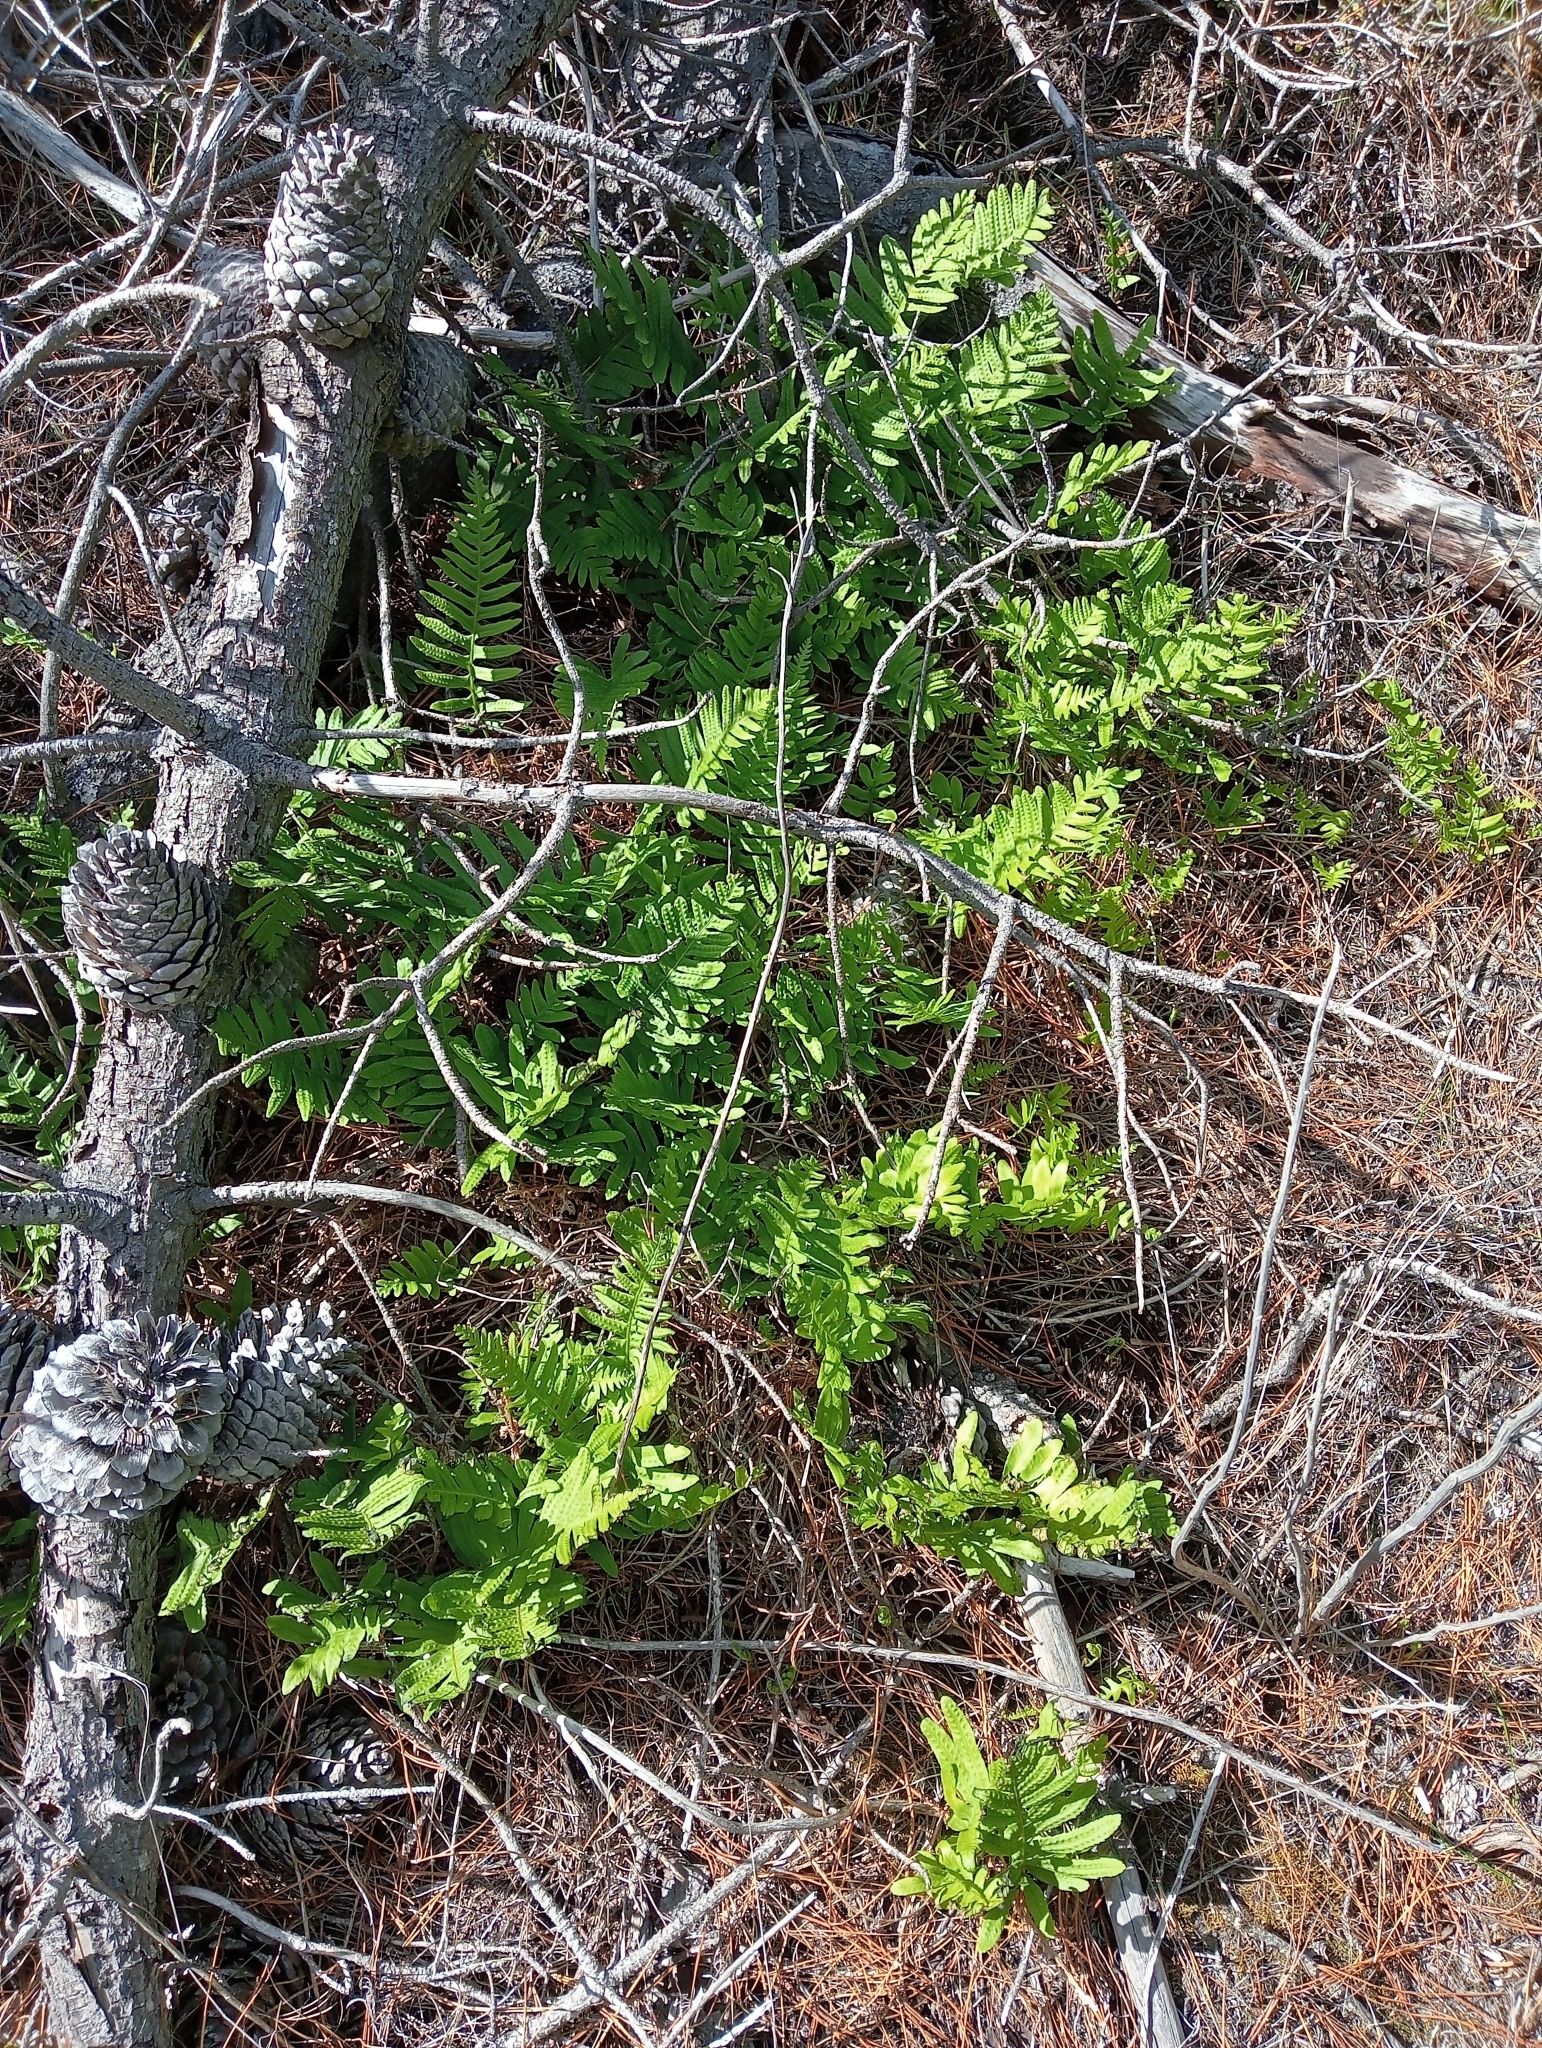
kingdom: Plantae
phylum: Tracheophyta
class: Polypodiopsida
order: Polypodiales
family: Polypodiaceae
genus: Polypodium
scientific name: Polypodium vulgare
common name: Common polypody
